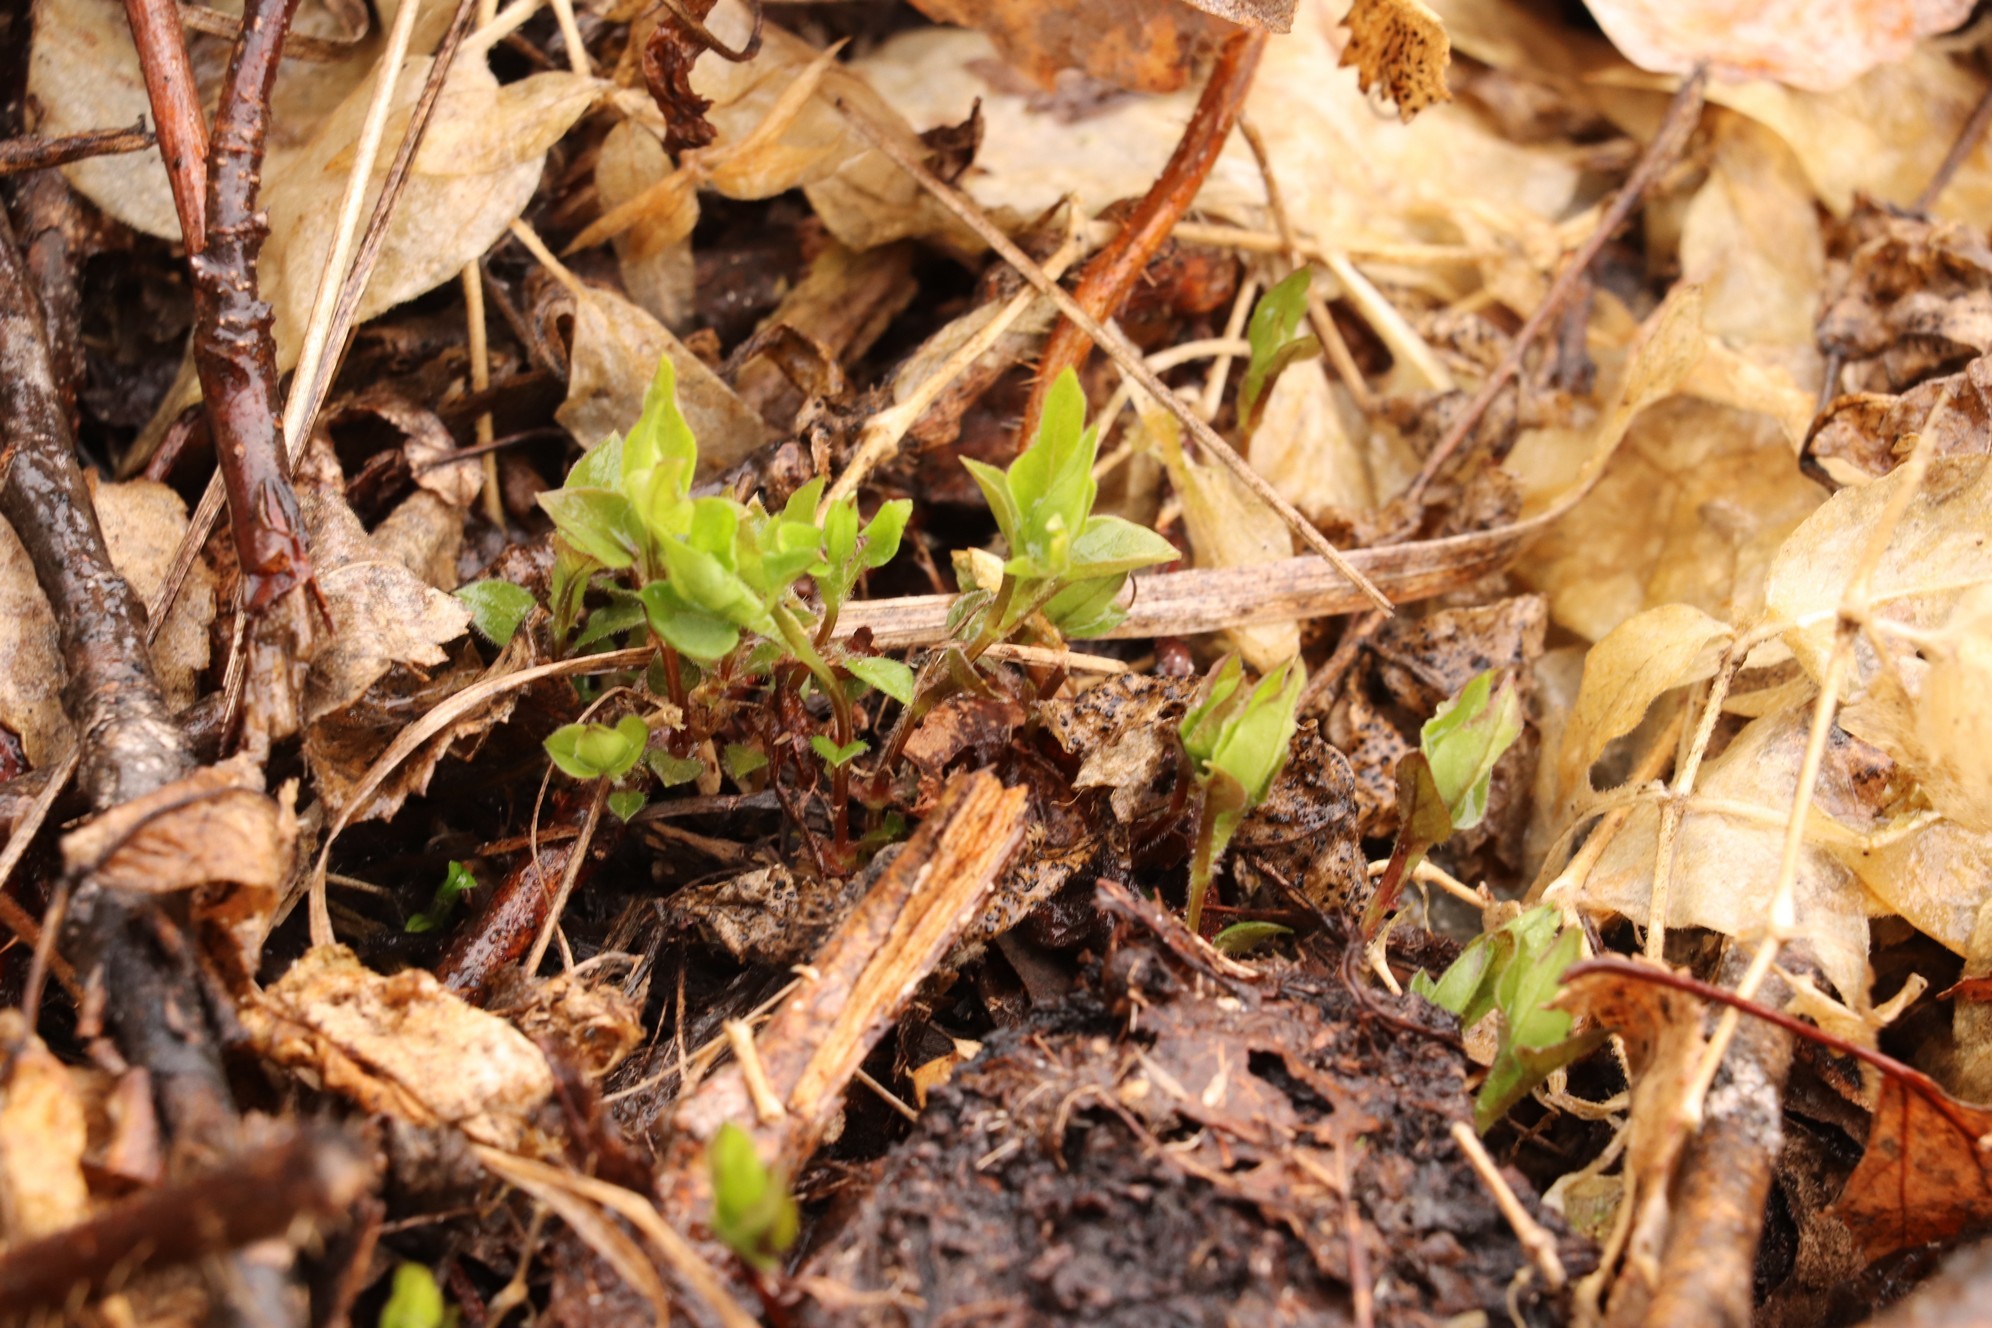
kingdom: Plantae
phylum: Tracheophyta
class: Magnoliopsida
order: Caryophyllales
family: Caryophyllaceae
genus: Stellaria
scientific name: Stellaria bungeana
